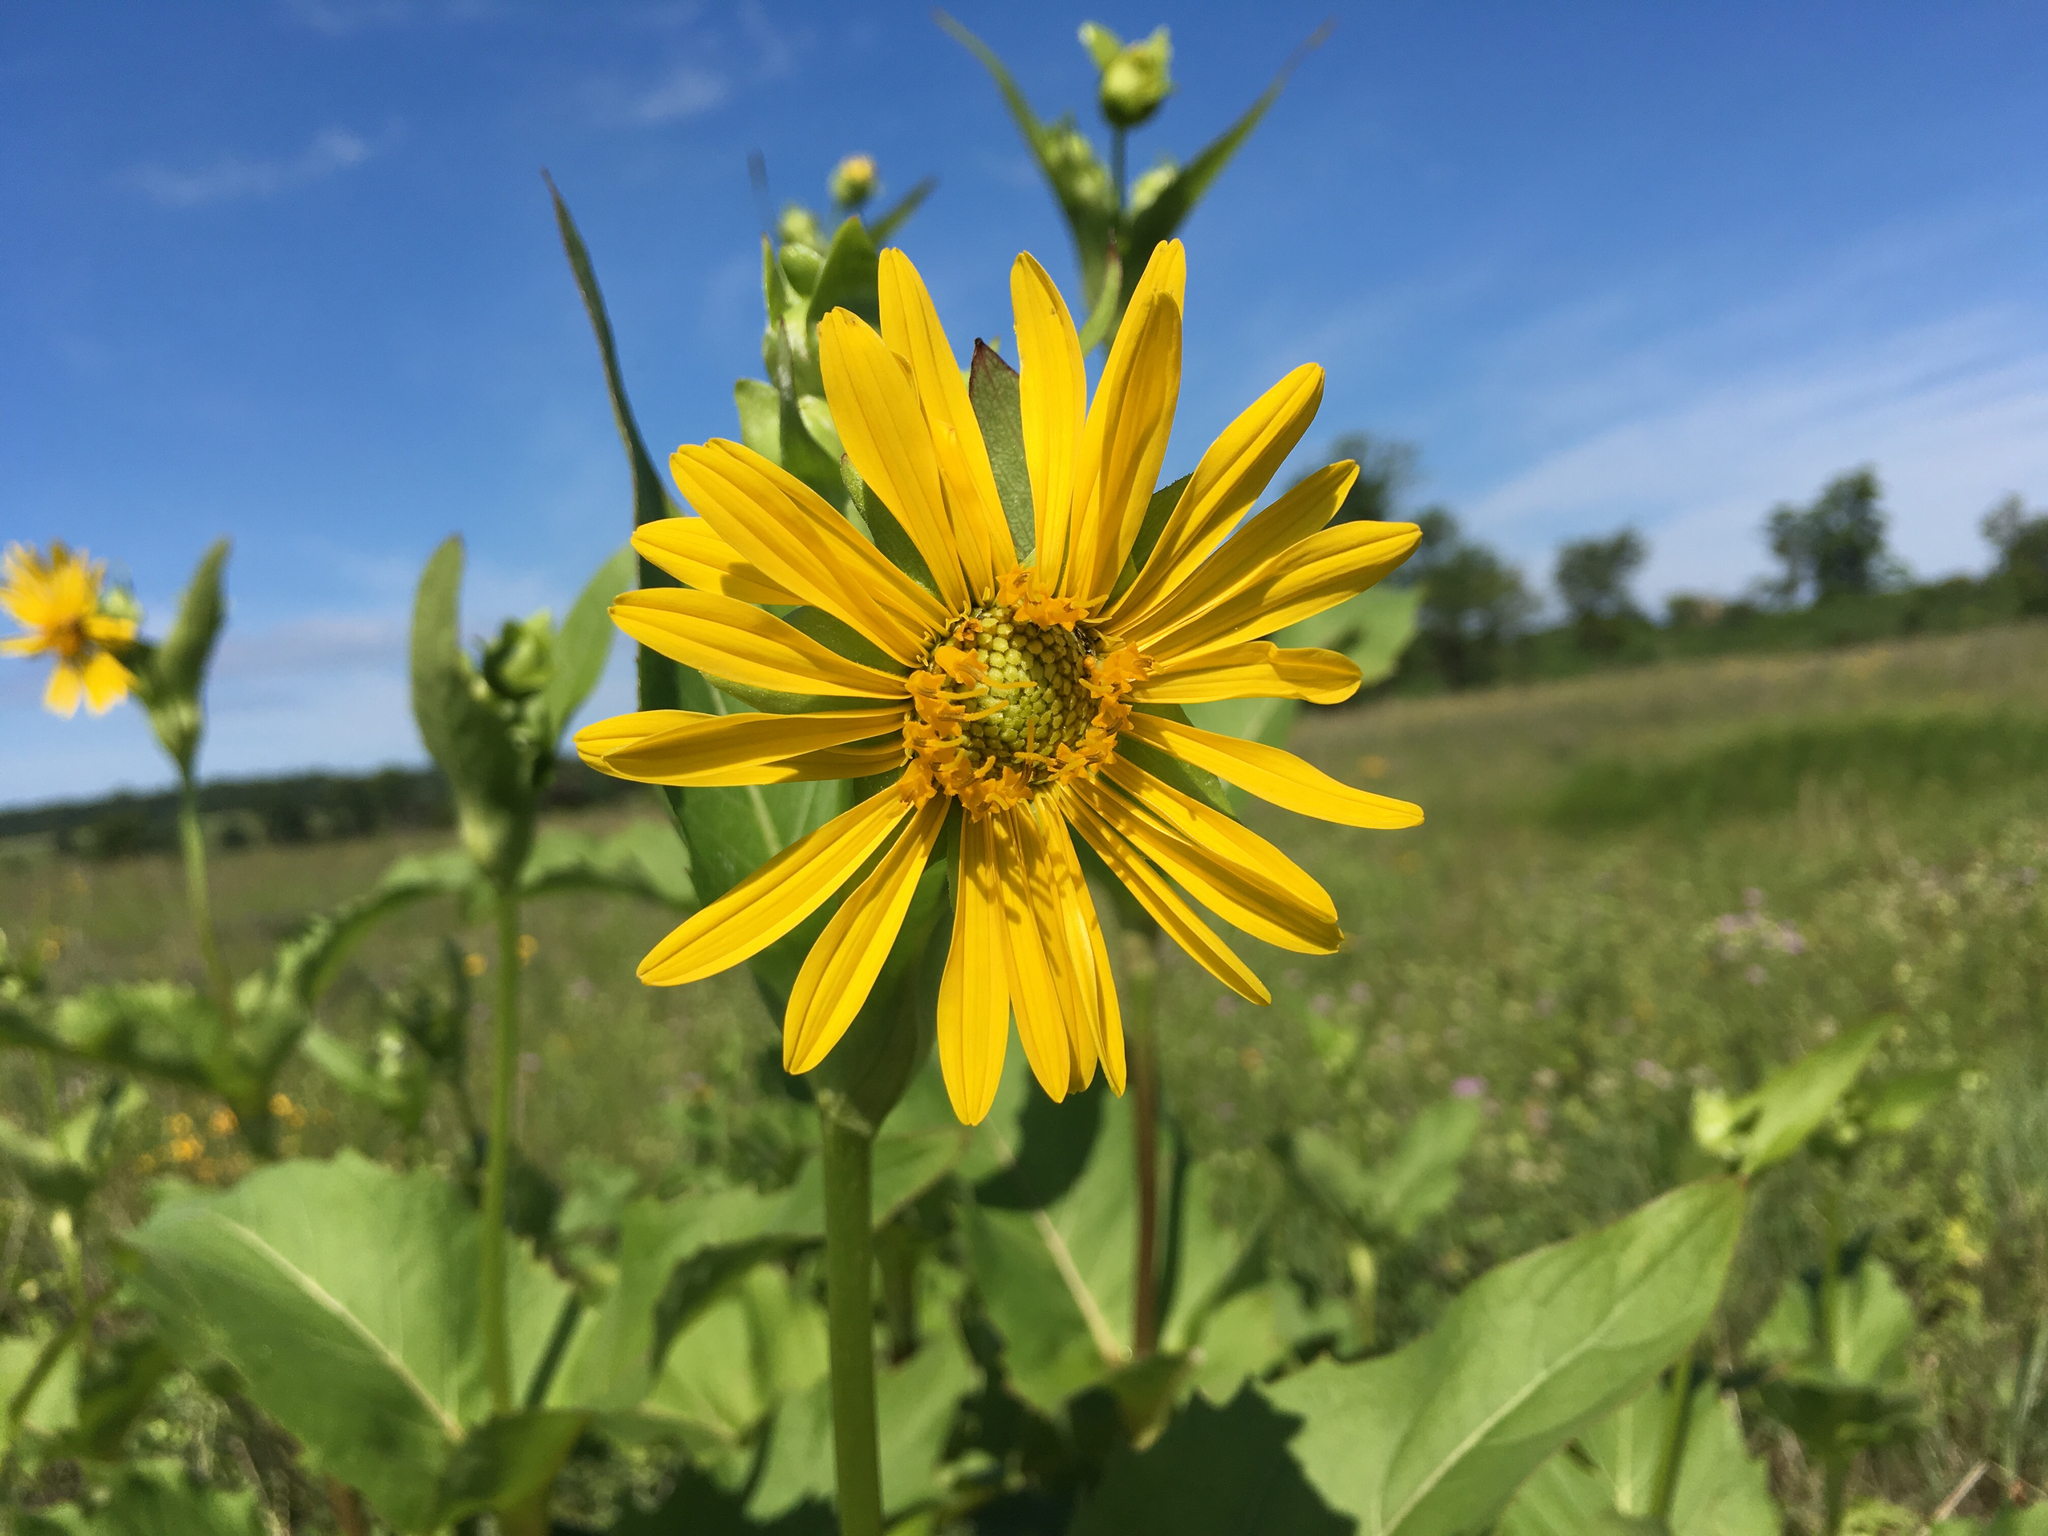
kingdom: Plantae
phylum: Tracheophyta
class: Magnoliopsida
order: Asterales
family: Asteraceae
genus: Silphium
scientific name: Silphium perfoliatum
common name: Cup-plant
